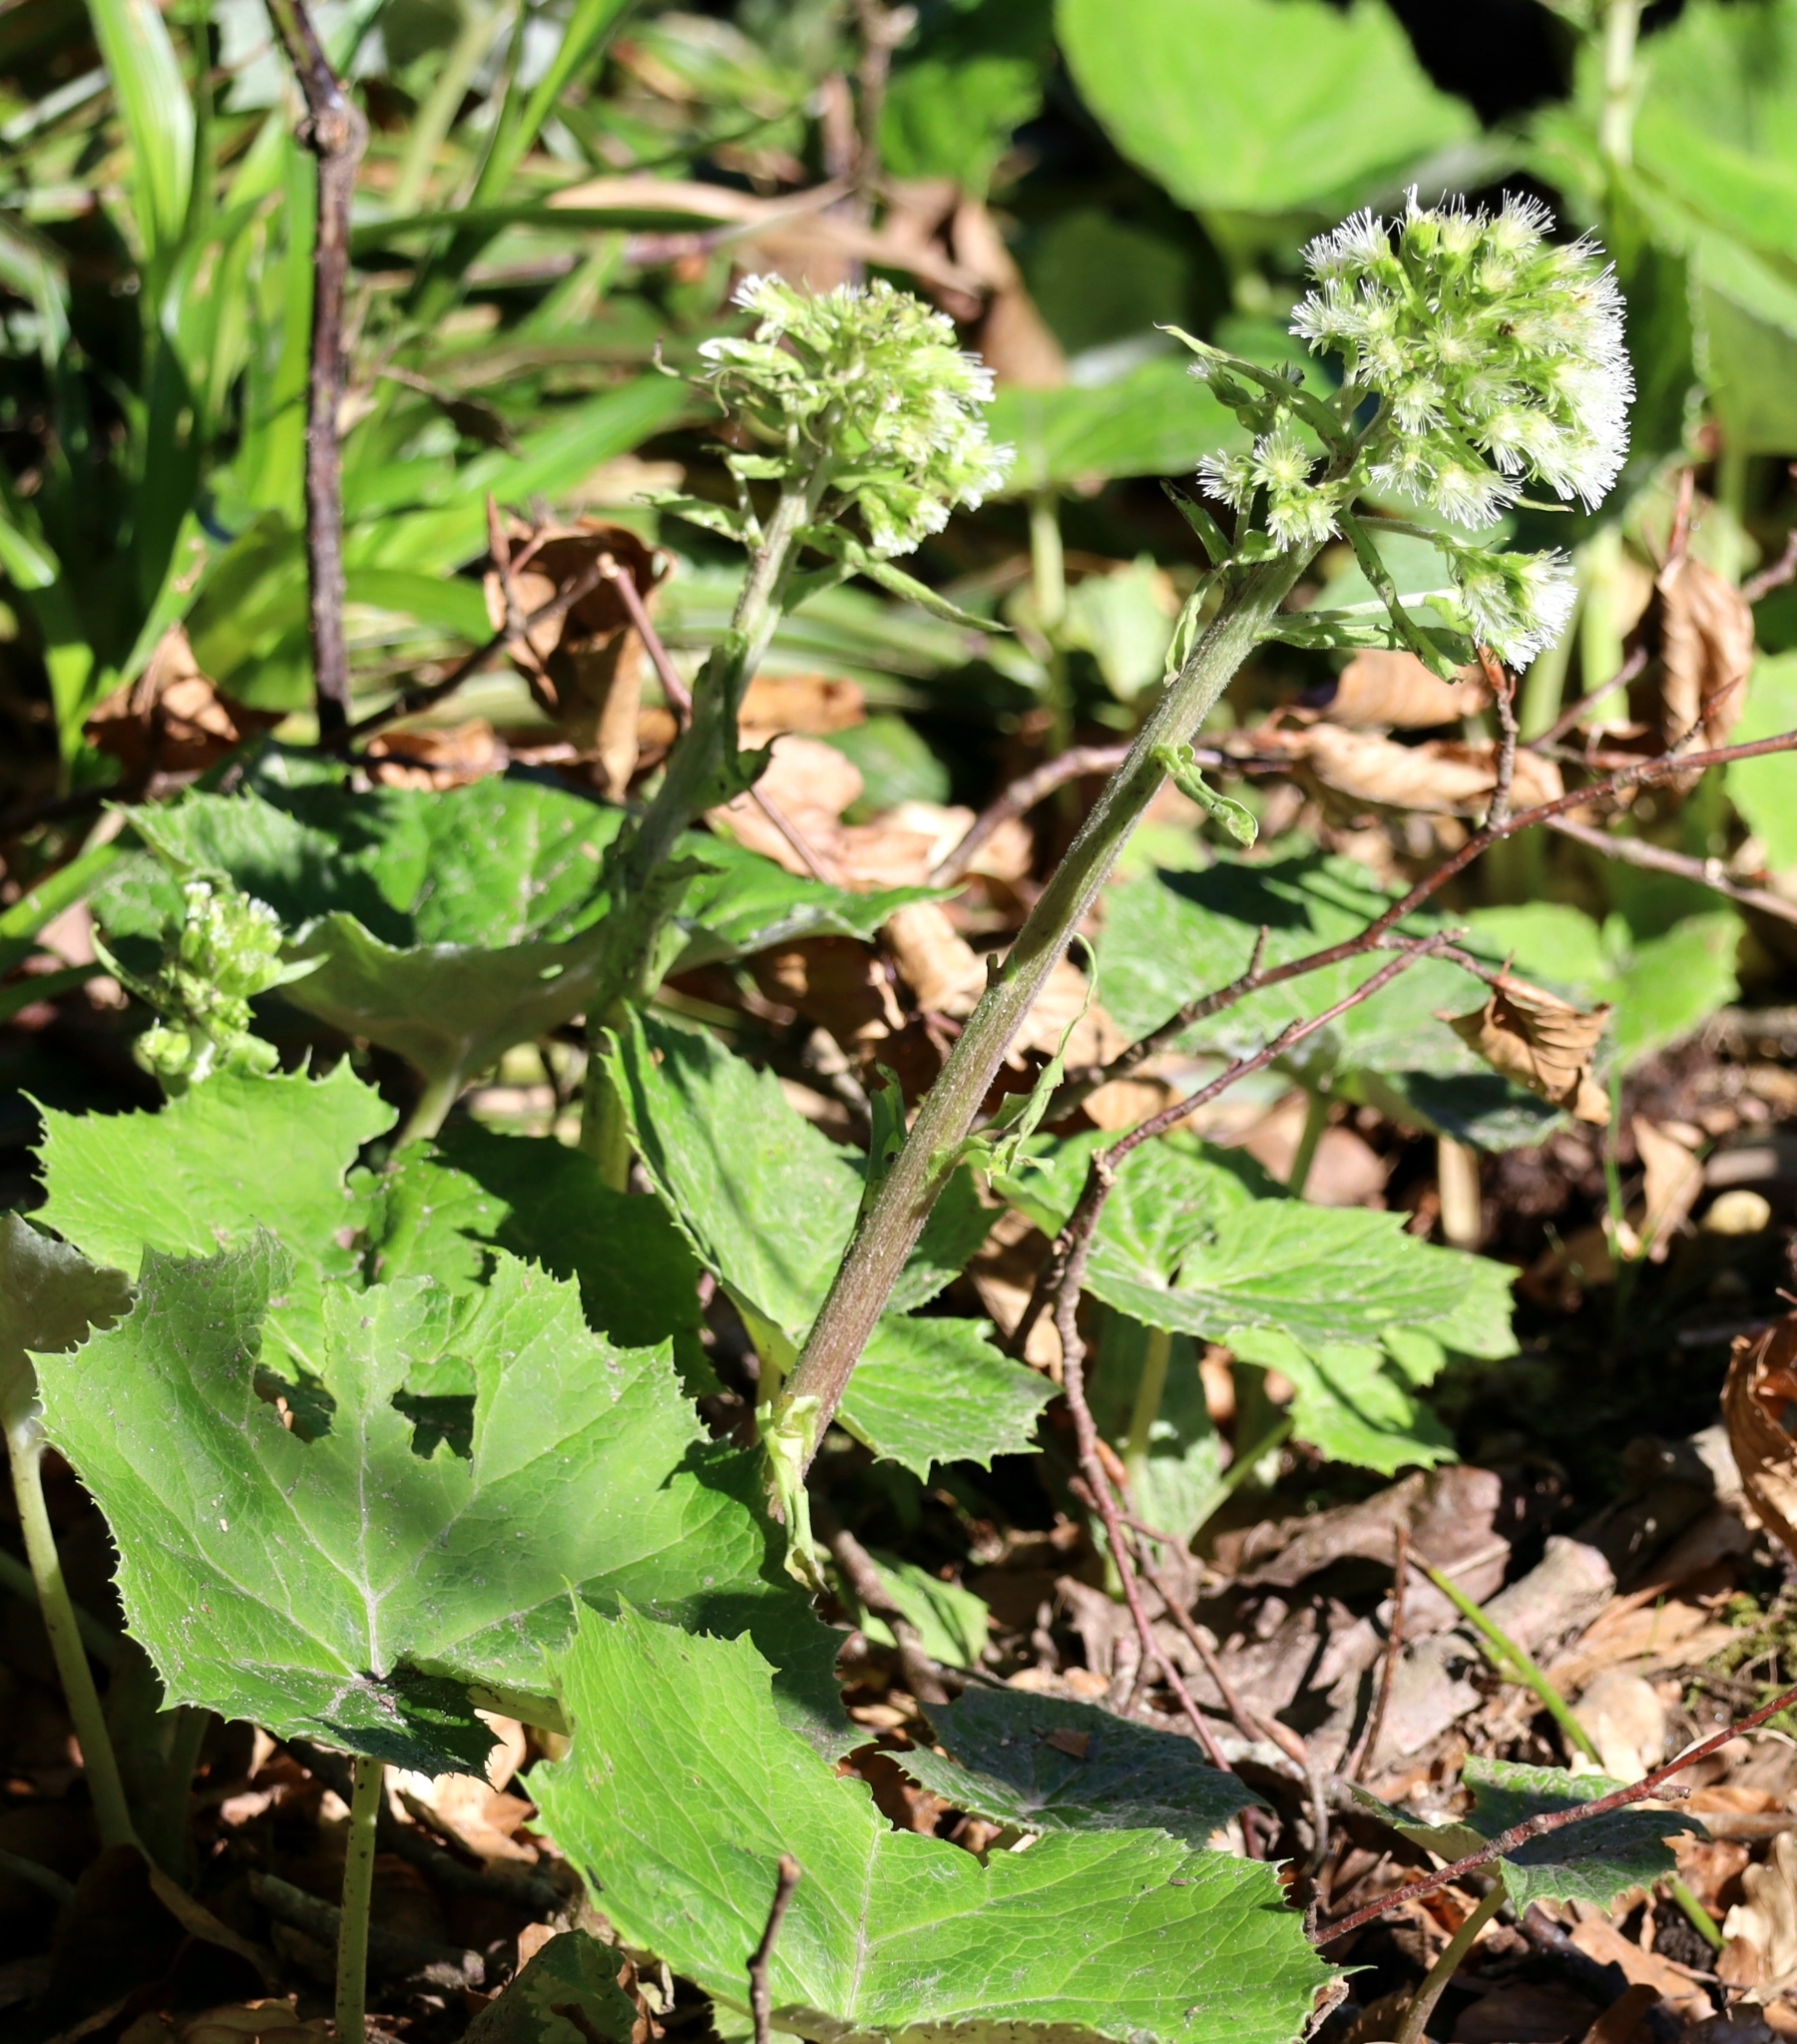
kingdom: Plantae
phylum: Tracheophyta
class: Magnoliopsida
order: Asterales
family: Asteraceae
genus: Petasites
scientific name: Petasites albus
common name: White butterbur
